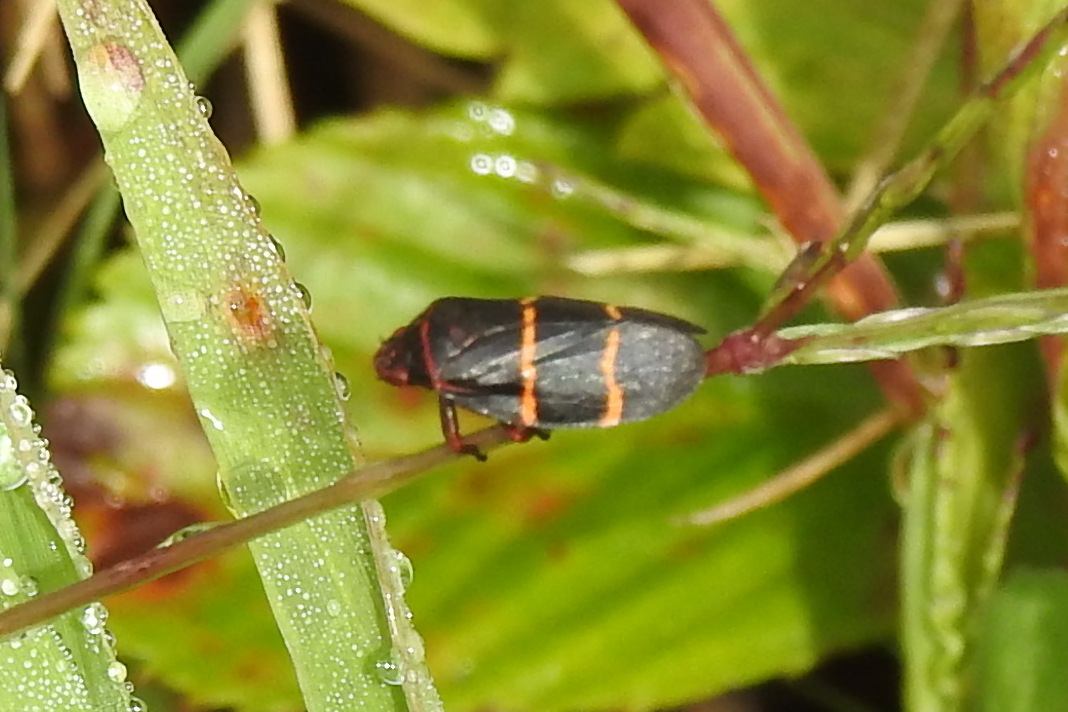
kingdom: Animalia
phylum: Arthropoda
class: Insecta
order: Hemiptera
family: Cercopidae
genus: Prosapia
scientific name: Prosapia bicincta
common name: Twolined spittlebug
